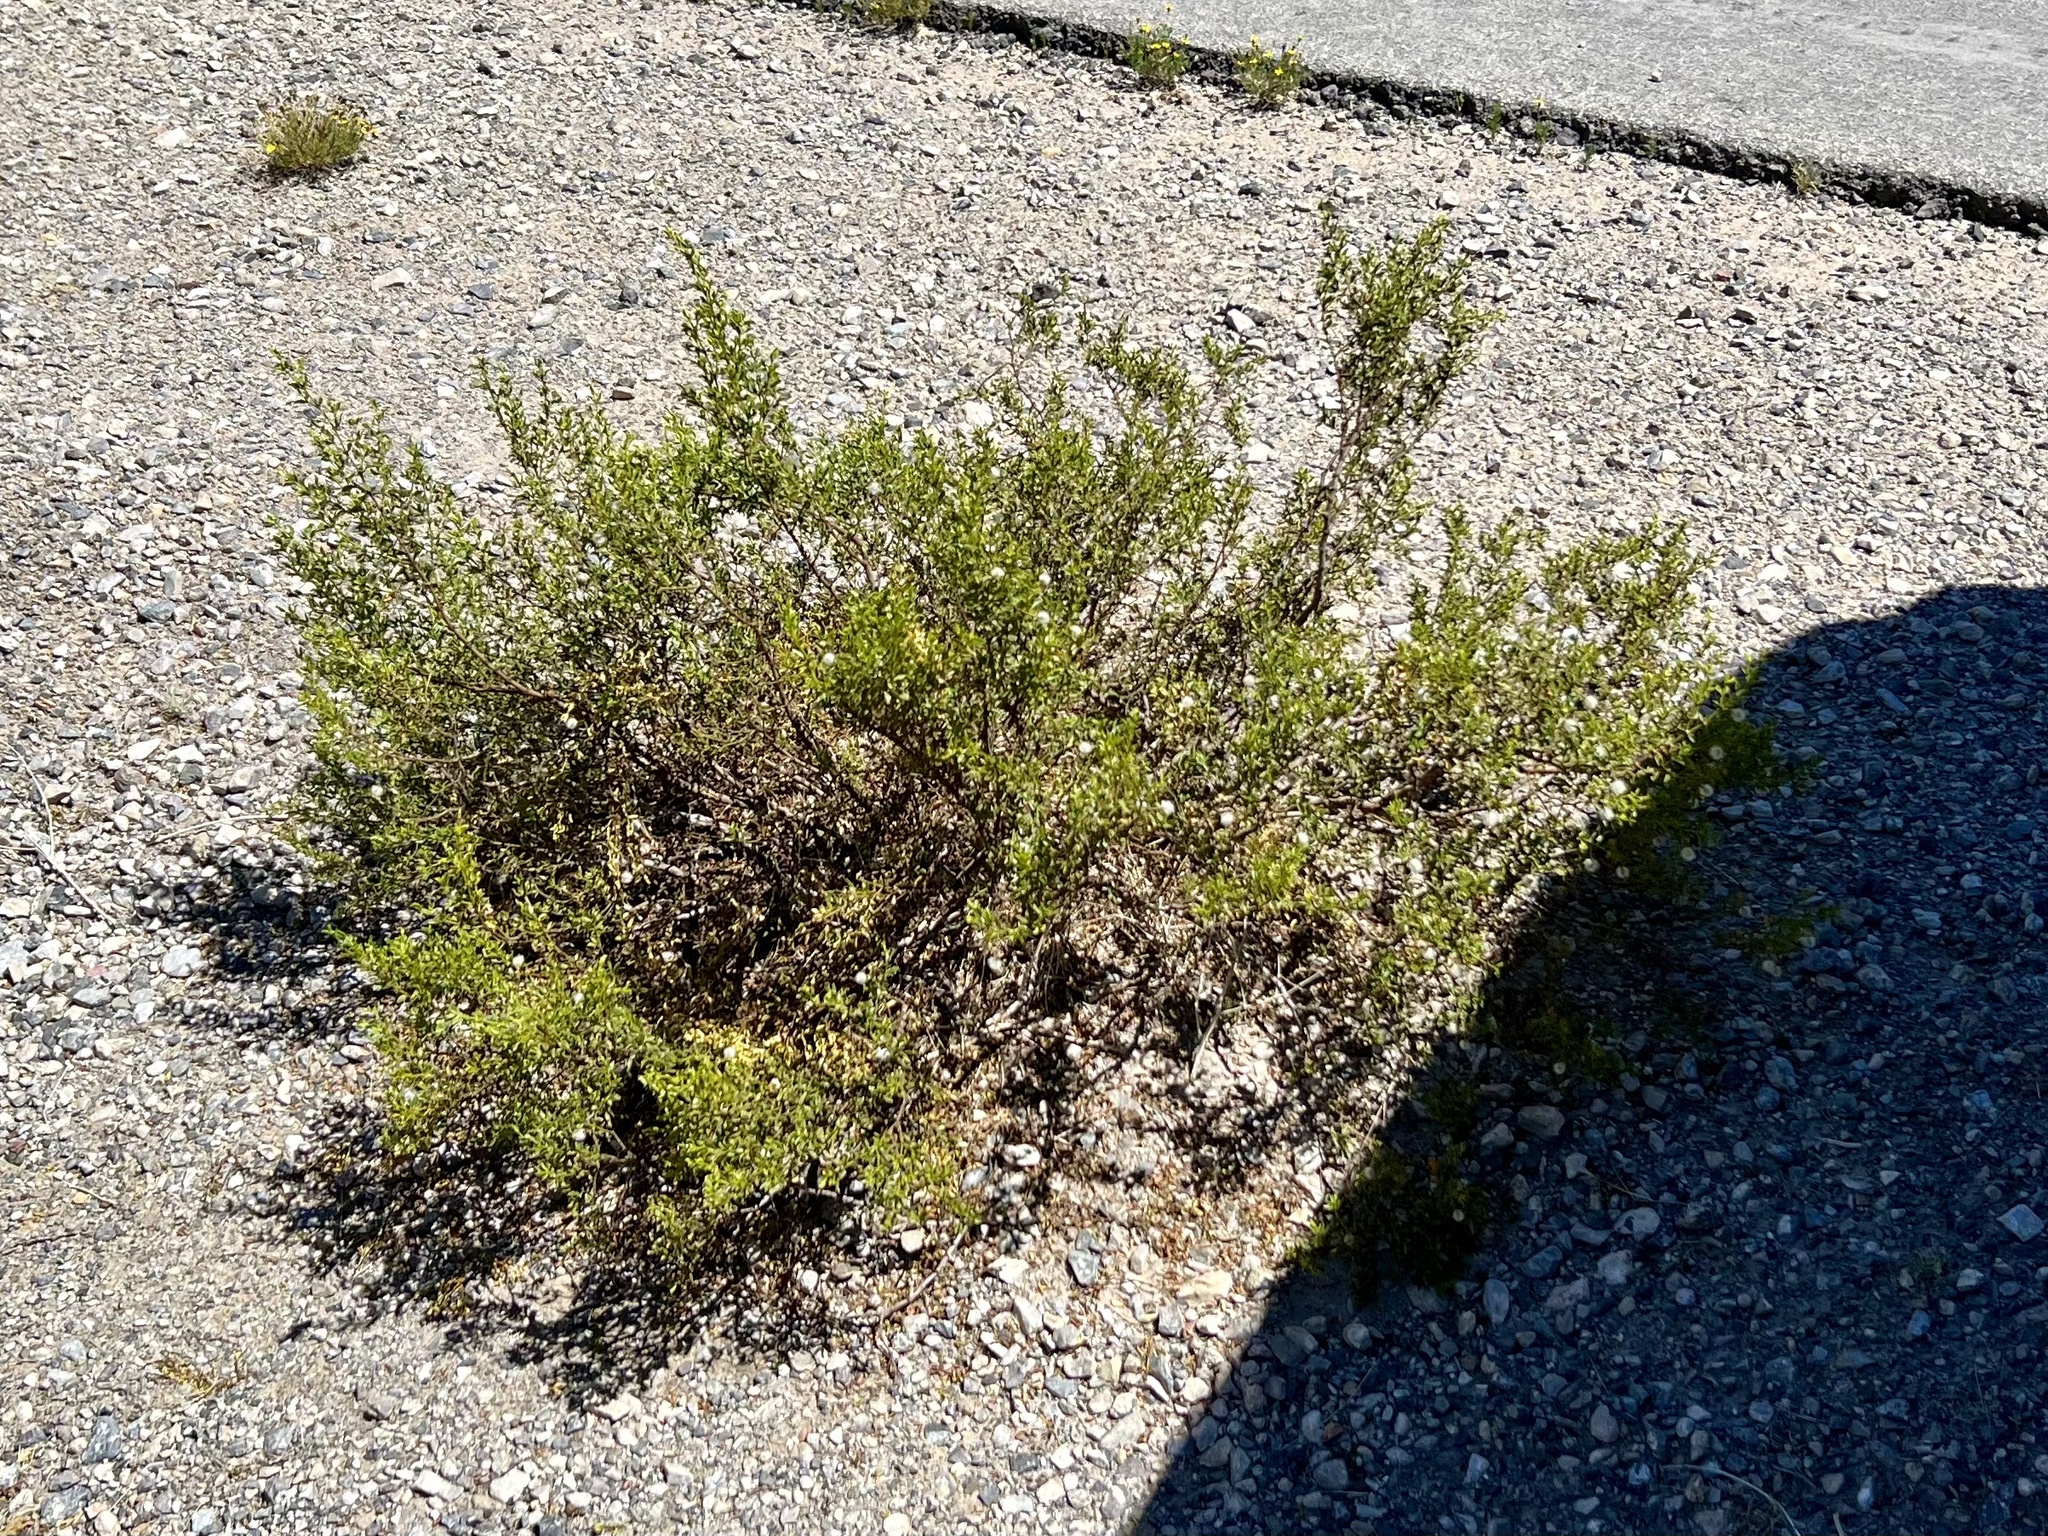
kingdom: Plantae
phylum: Tracheophyta
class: Magnoliopsida
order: Zygophyllales
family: Zygophyllaceae
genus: Larrea
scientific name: Larrea tridentata
